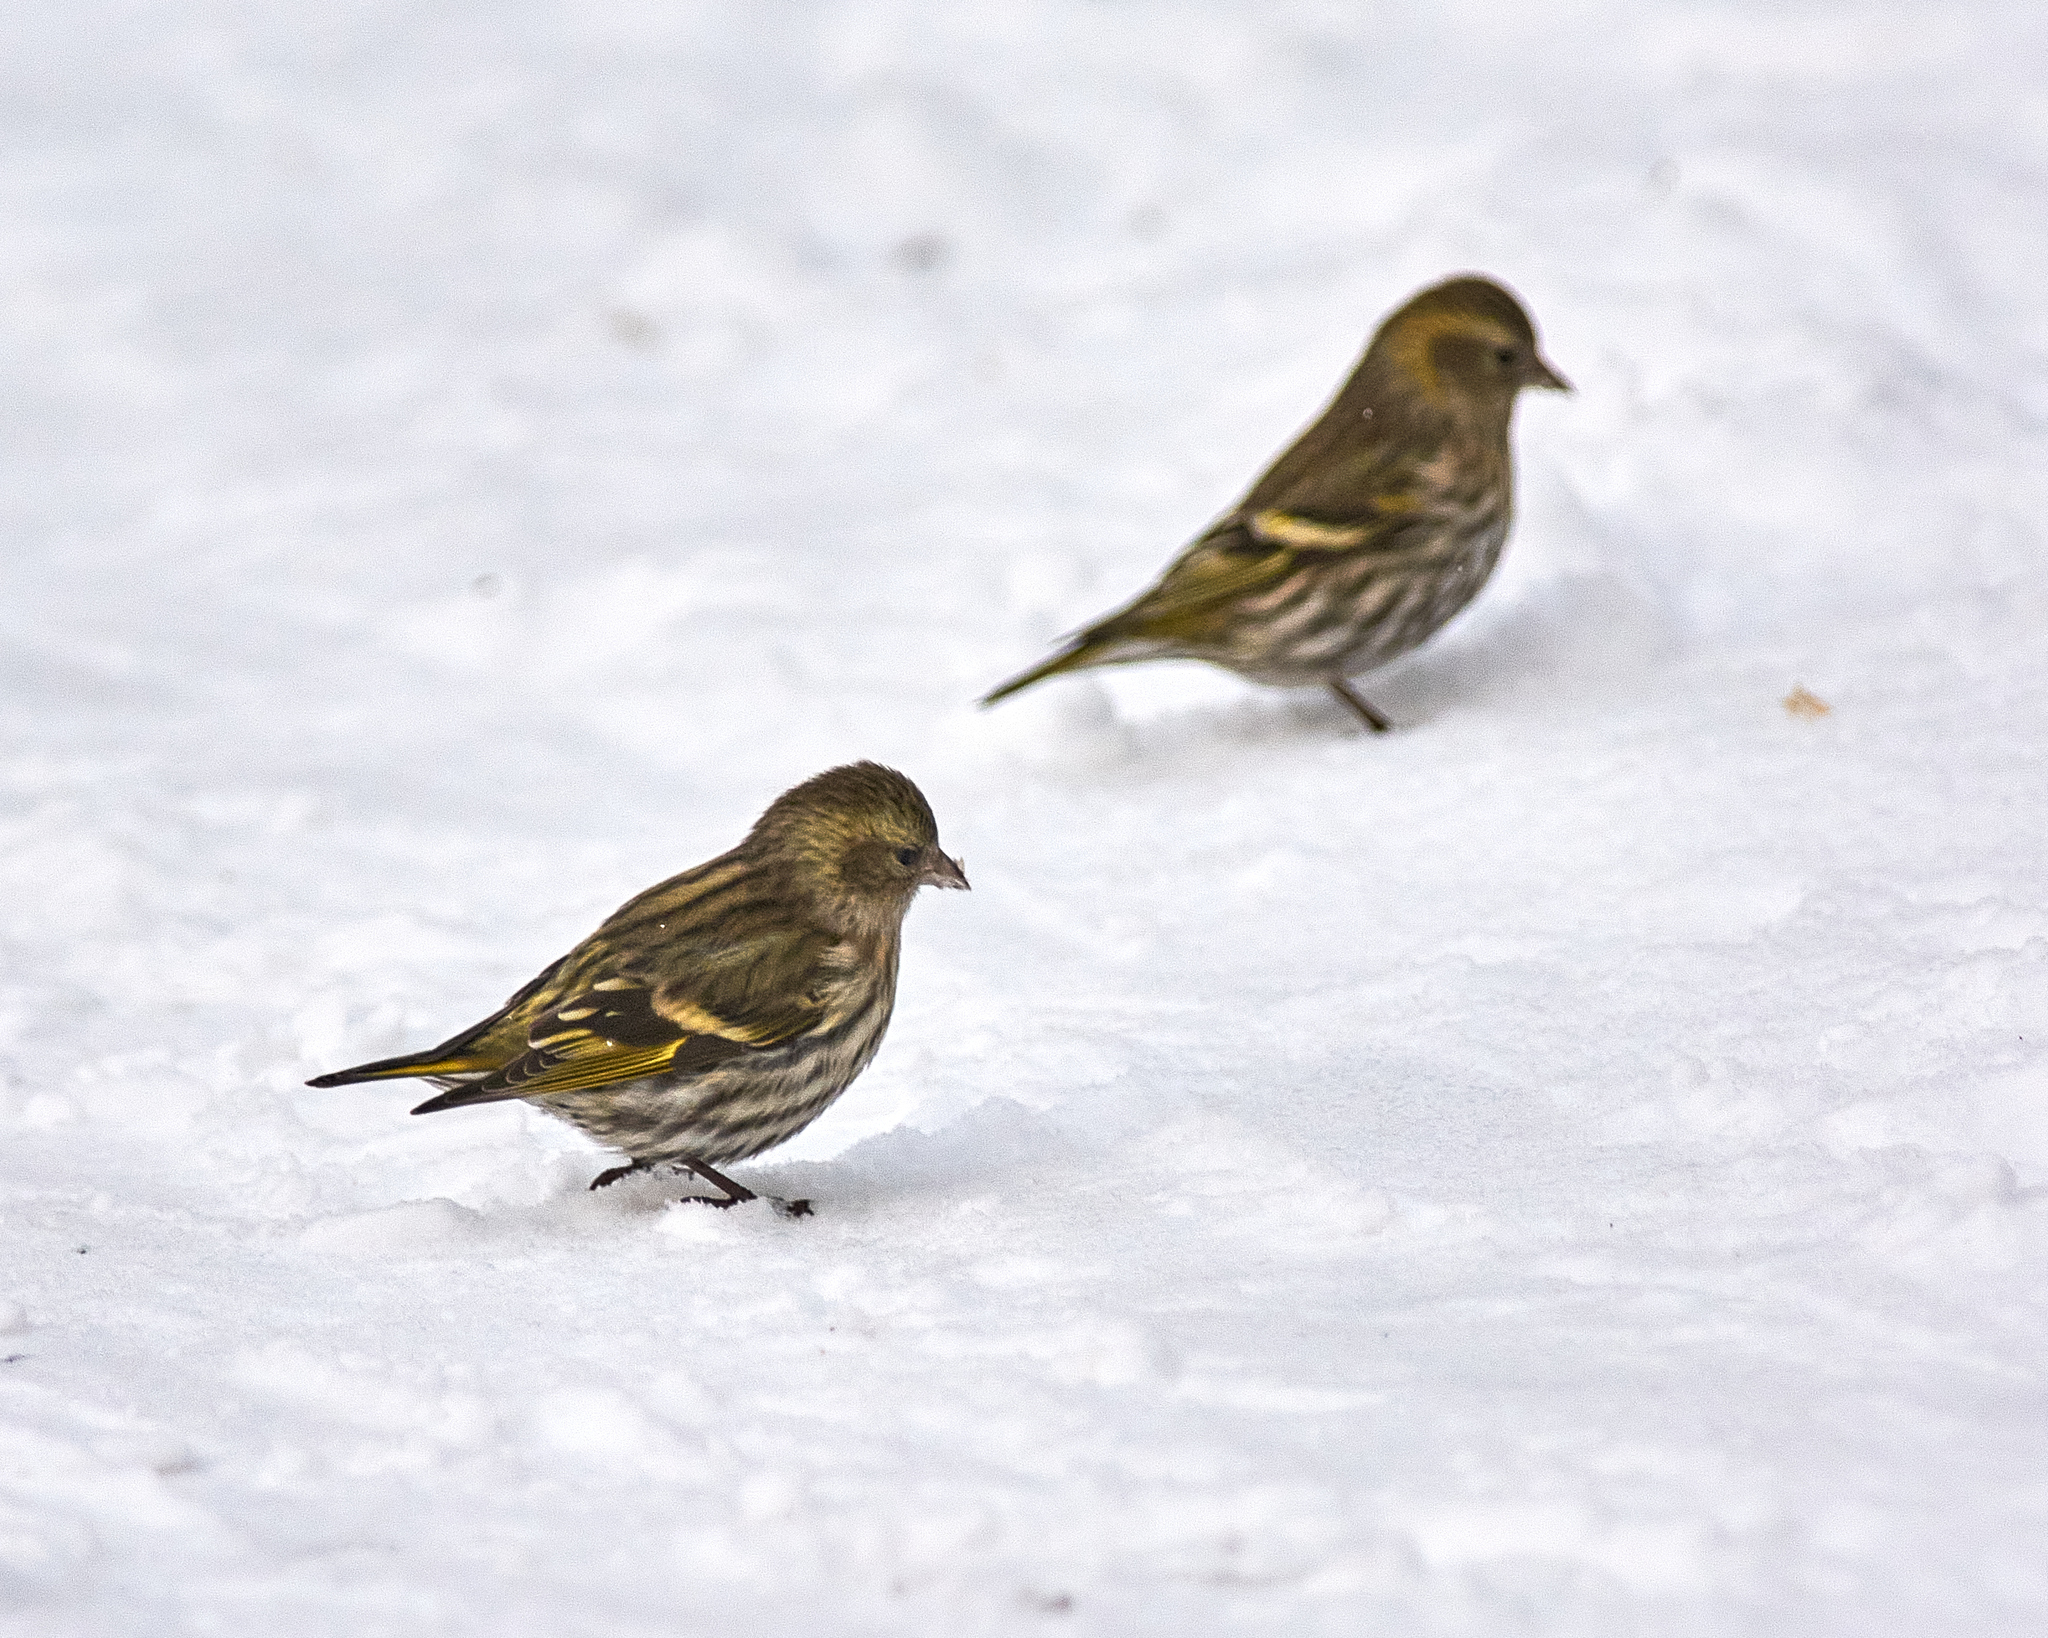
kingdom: Animalia
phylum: Chordata
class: Aves
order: Passeriformes
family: Fringillidae
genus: Spinus
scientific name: Spinus spinus
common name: Eurasian siskin
